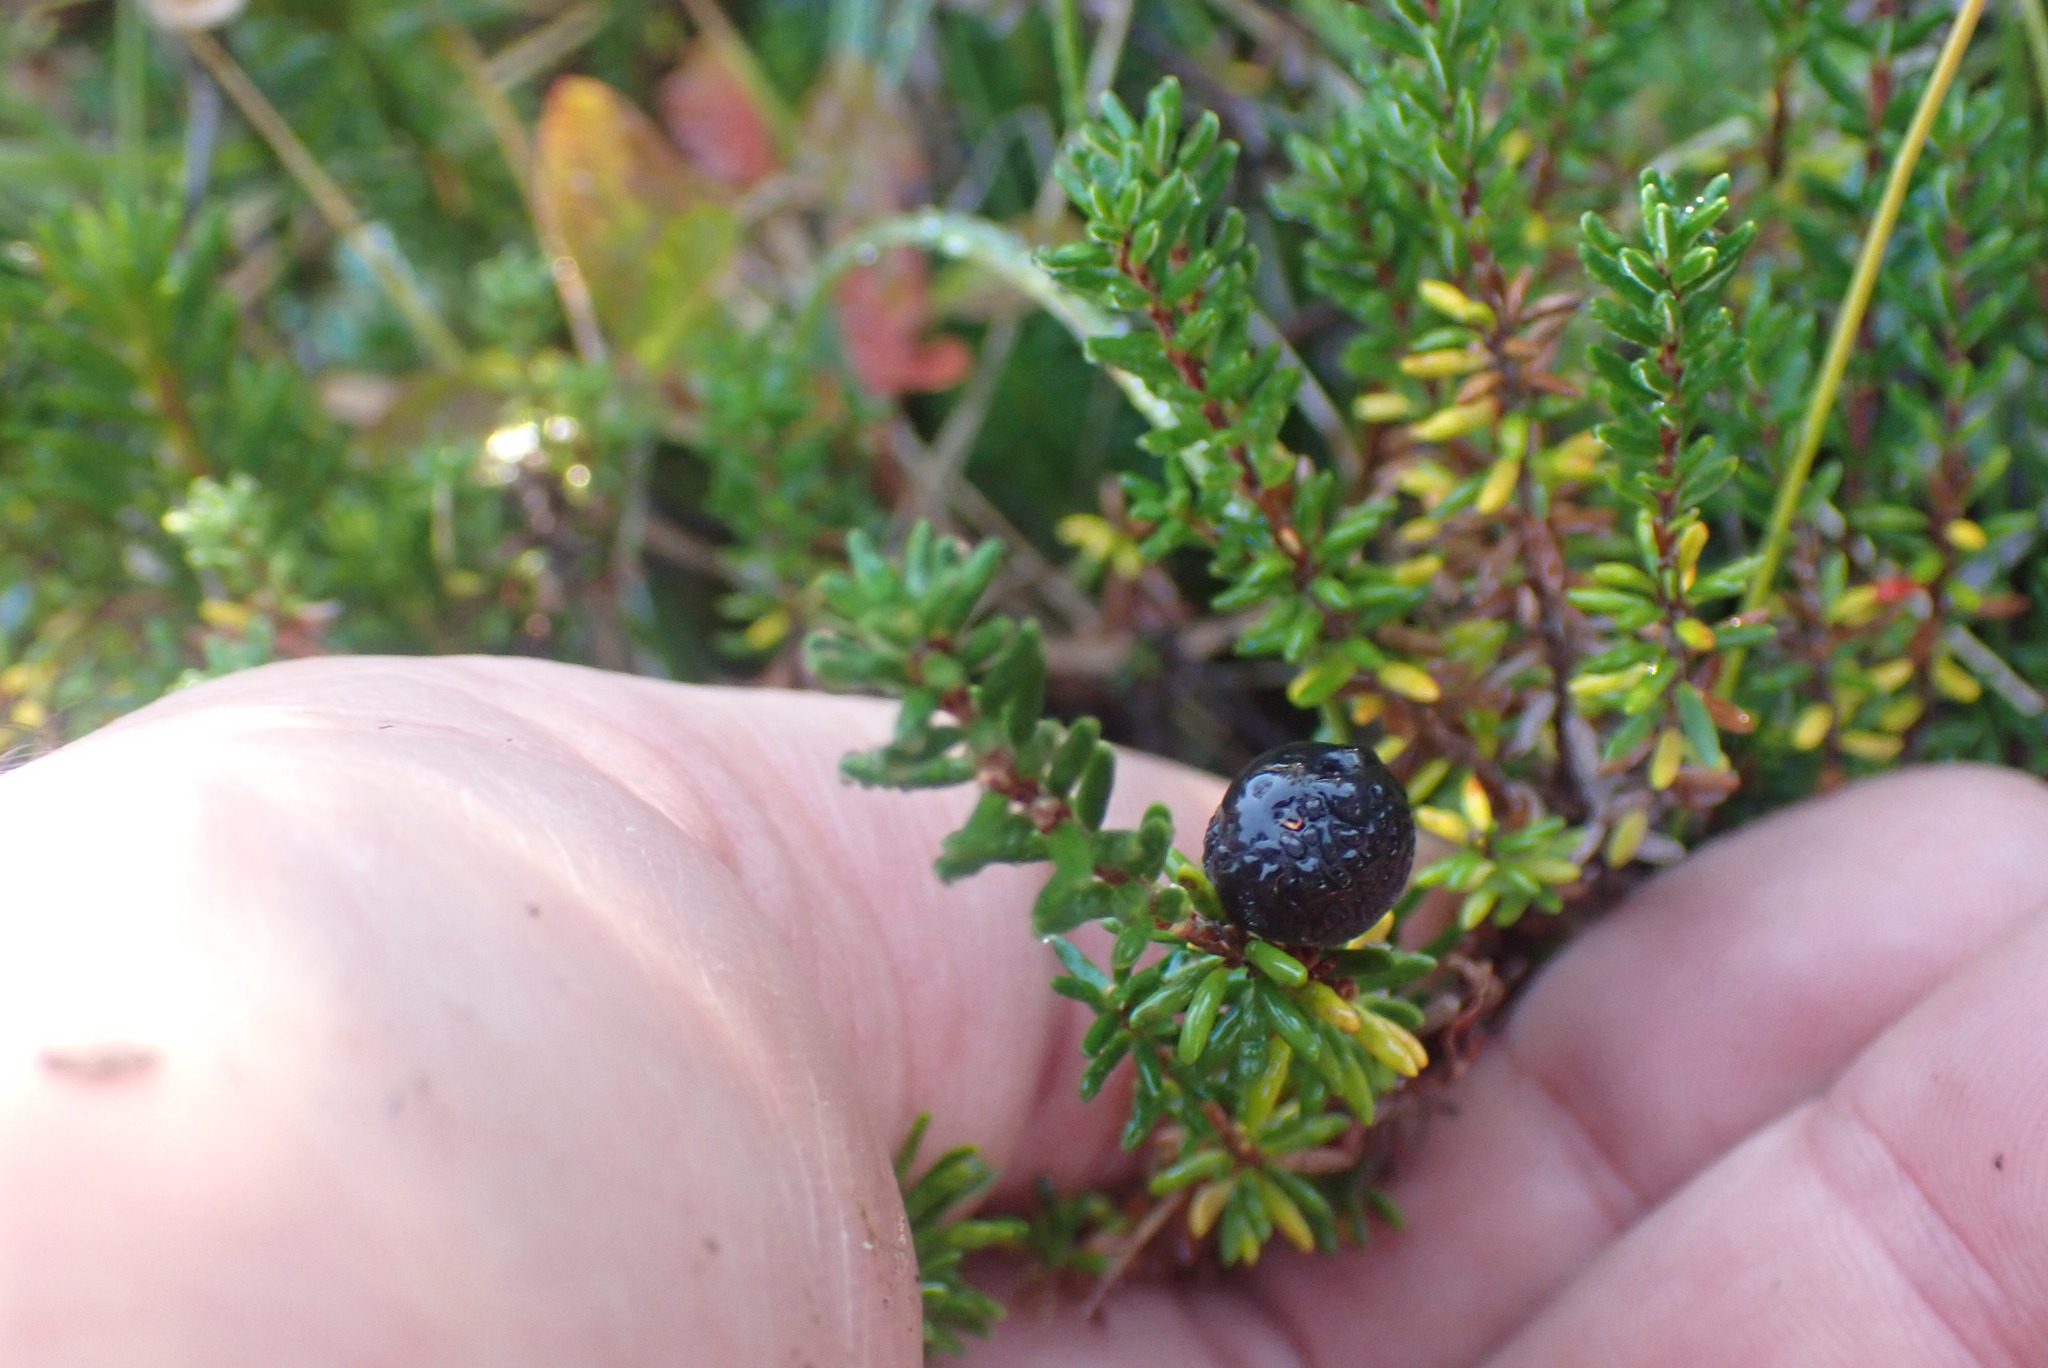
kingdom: Plantae
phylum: Tracheophyta
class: Magnoliopsida
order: Ericales
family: Ericaceae
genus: Empetrum
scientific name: Empetrum nigrum
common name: Black crowberry
